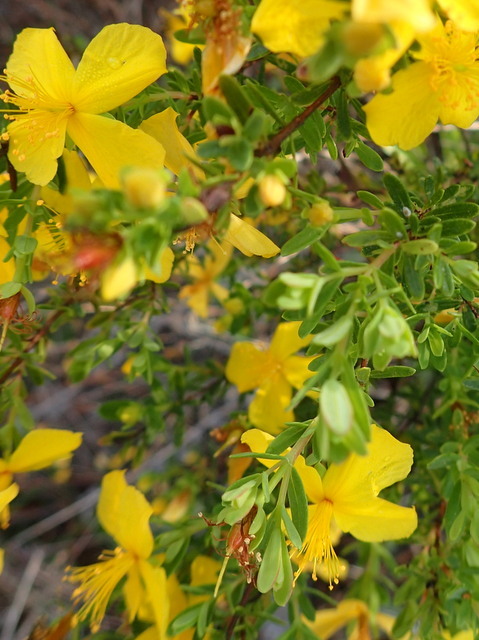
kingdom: Plantae
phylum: Tracheophyta
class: Magnoliopsida
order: Malpighiales
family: Hypericaceae
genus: Hypericum
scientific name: Hypericum microsepalum
